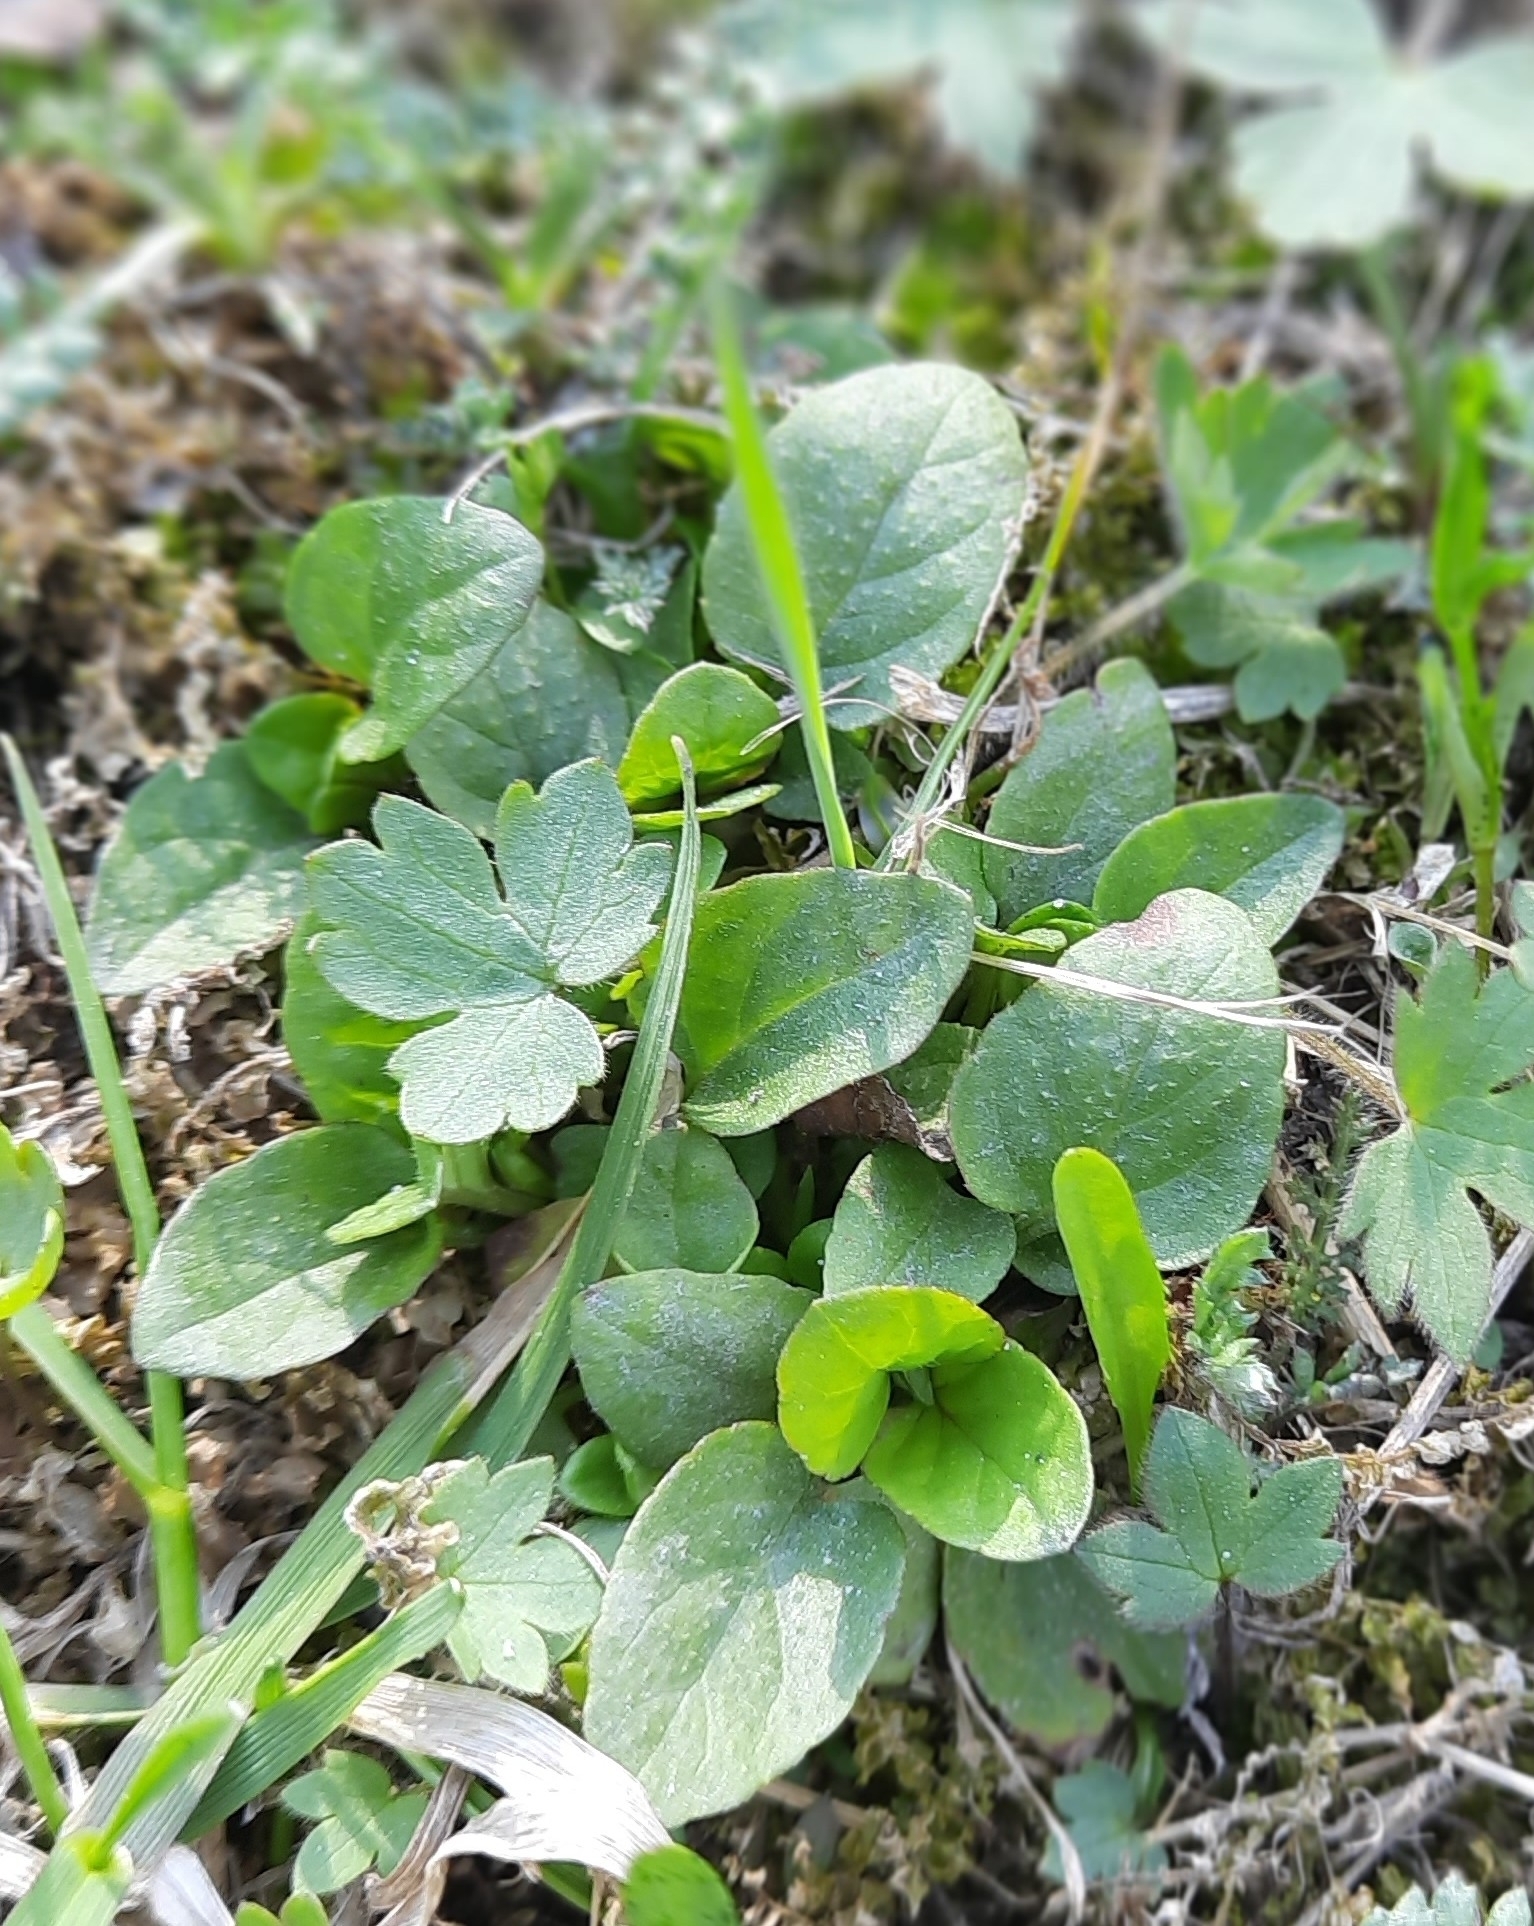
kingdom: Plantae
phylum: Tracheophyta
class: Magnoliopsida
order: Lamiales
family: Lamiaceae
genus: Prunella
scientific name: Prunella vulgaris
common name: Heal-all
